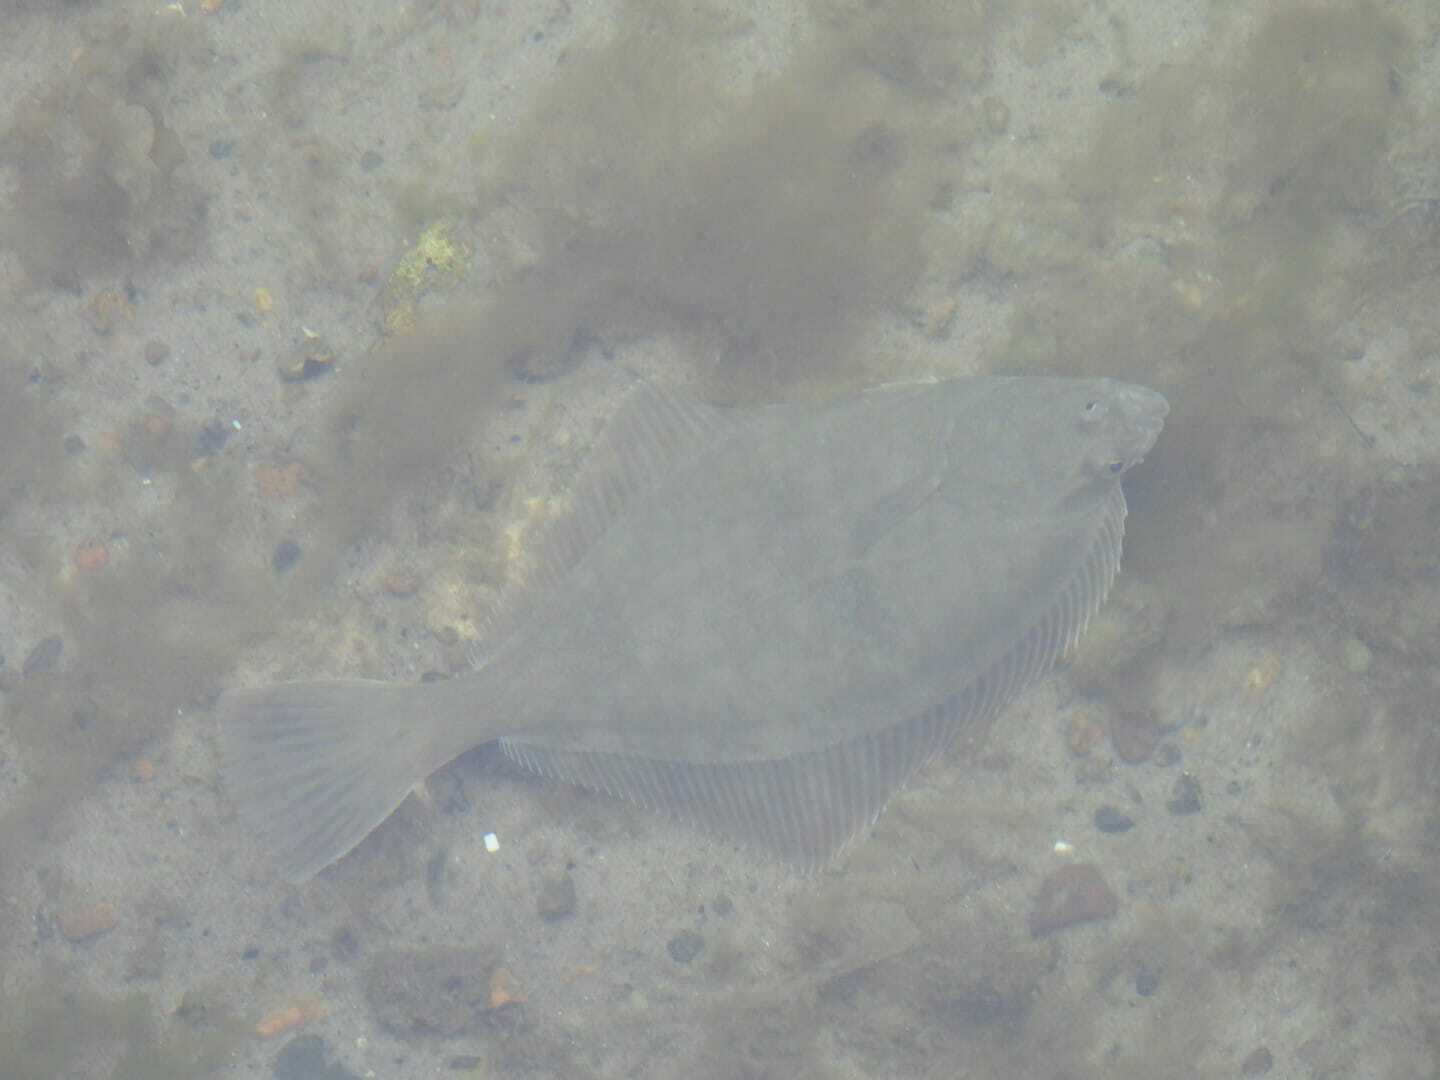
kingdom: Animalia
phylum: Chordata
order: Pleuronectiformes
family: Pleuronectidae
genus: Platichthys
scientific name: Platichthys flesus
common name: European flounder
